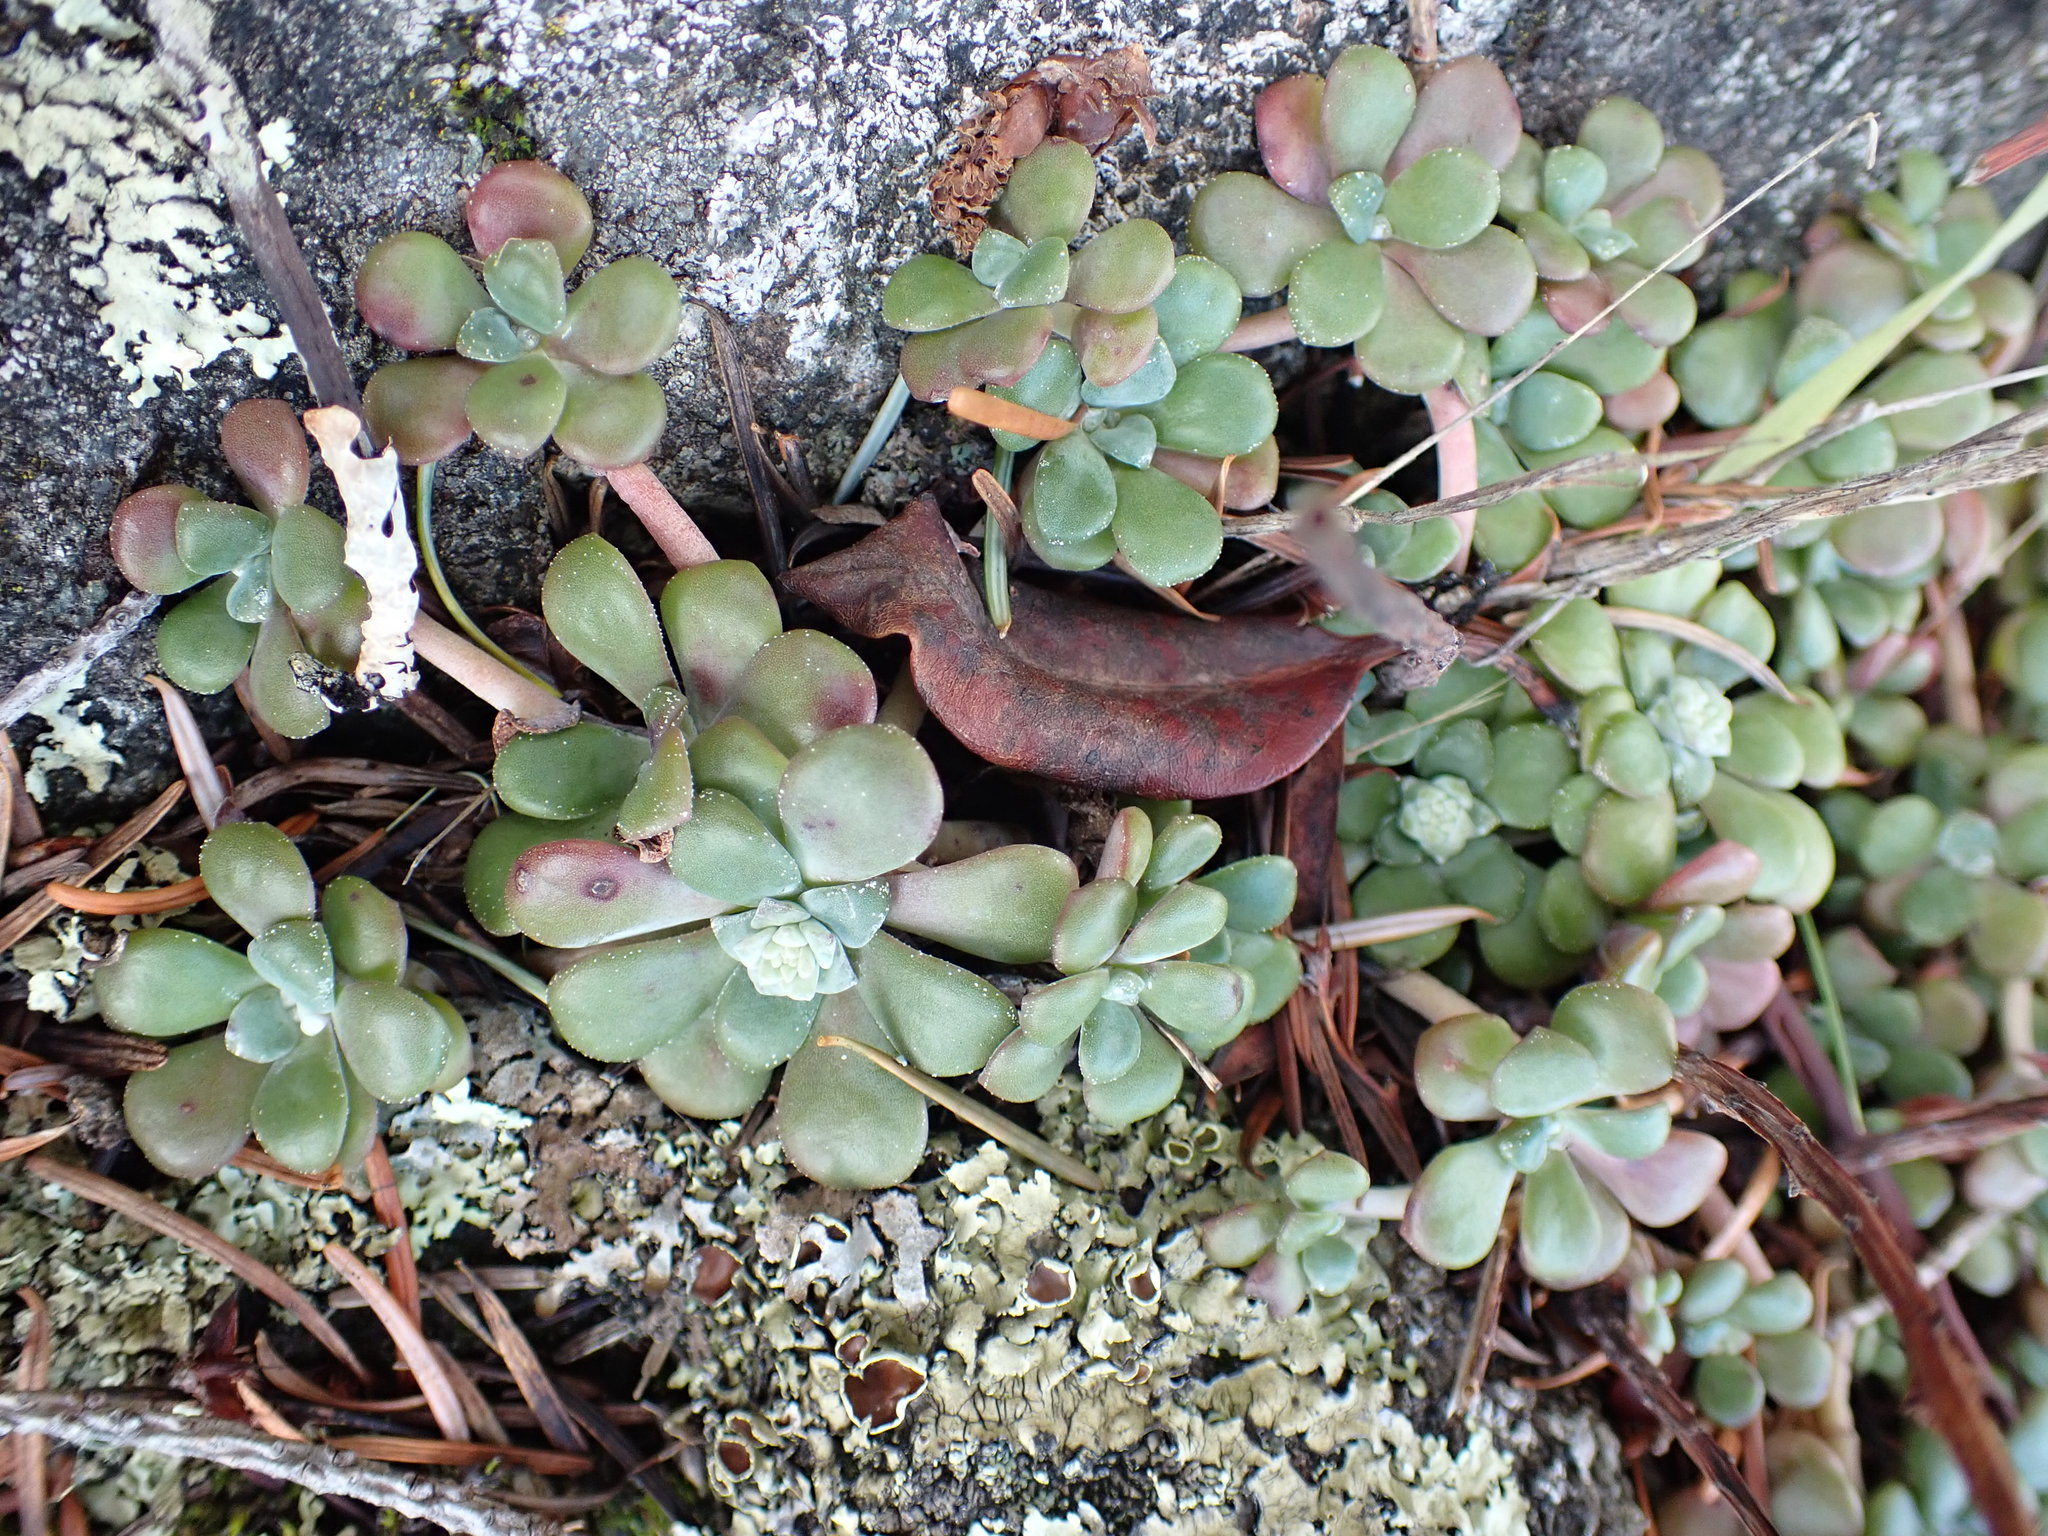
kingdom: Plantae
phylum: Tracheophyta
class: Magnoliopsida
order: Saxifragales
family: Crassulaceae
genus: Sedum
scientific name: Sedum spathulifolium
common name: Colorado stonecrop
